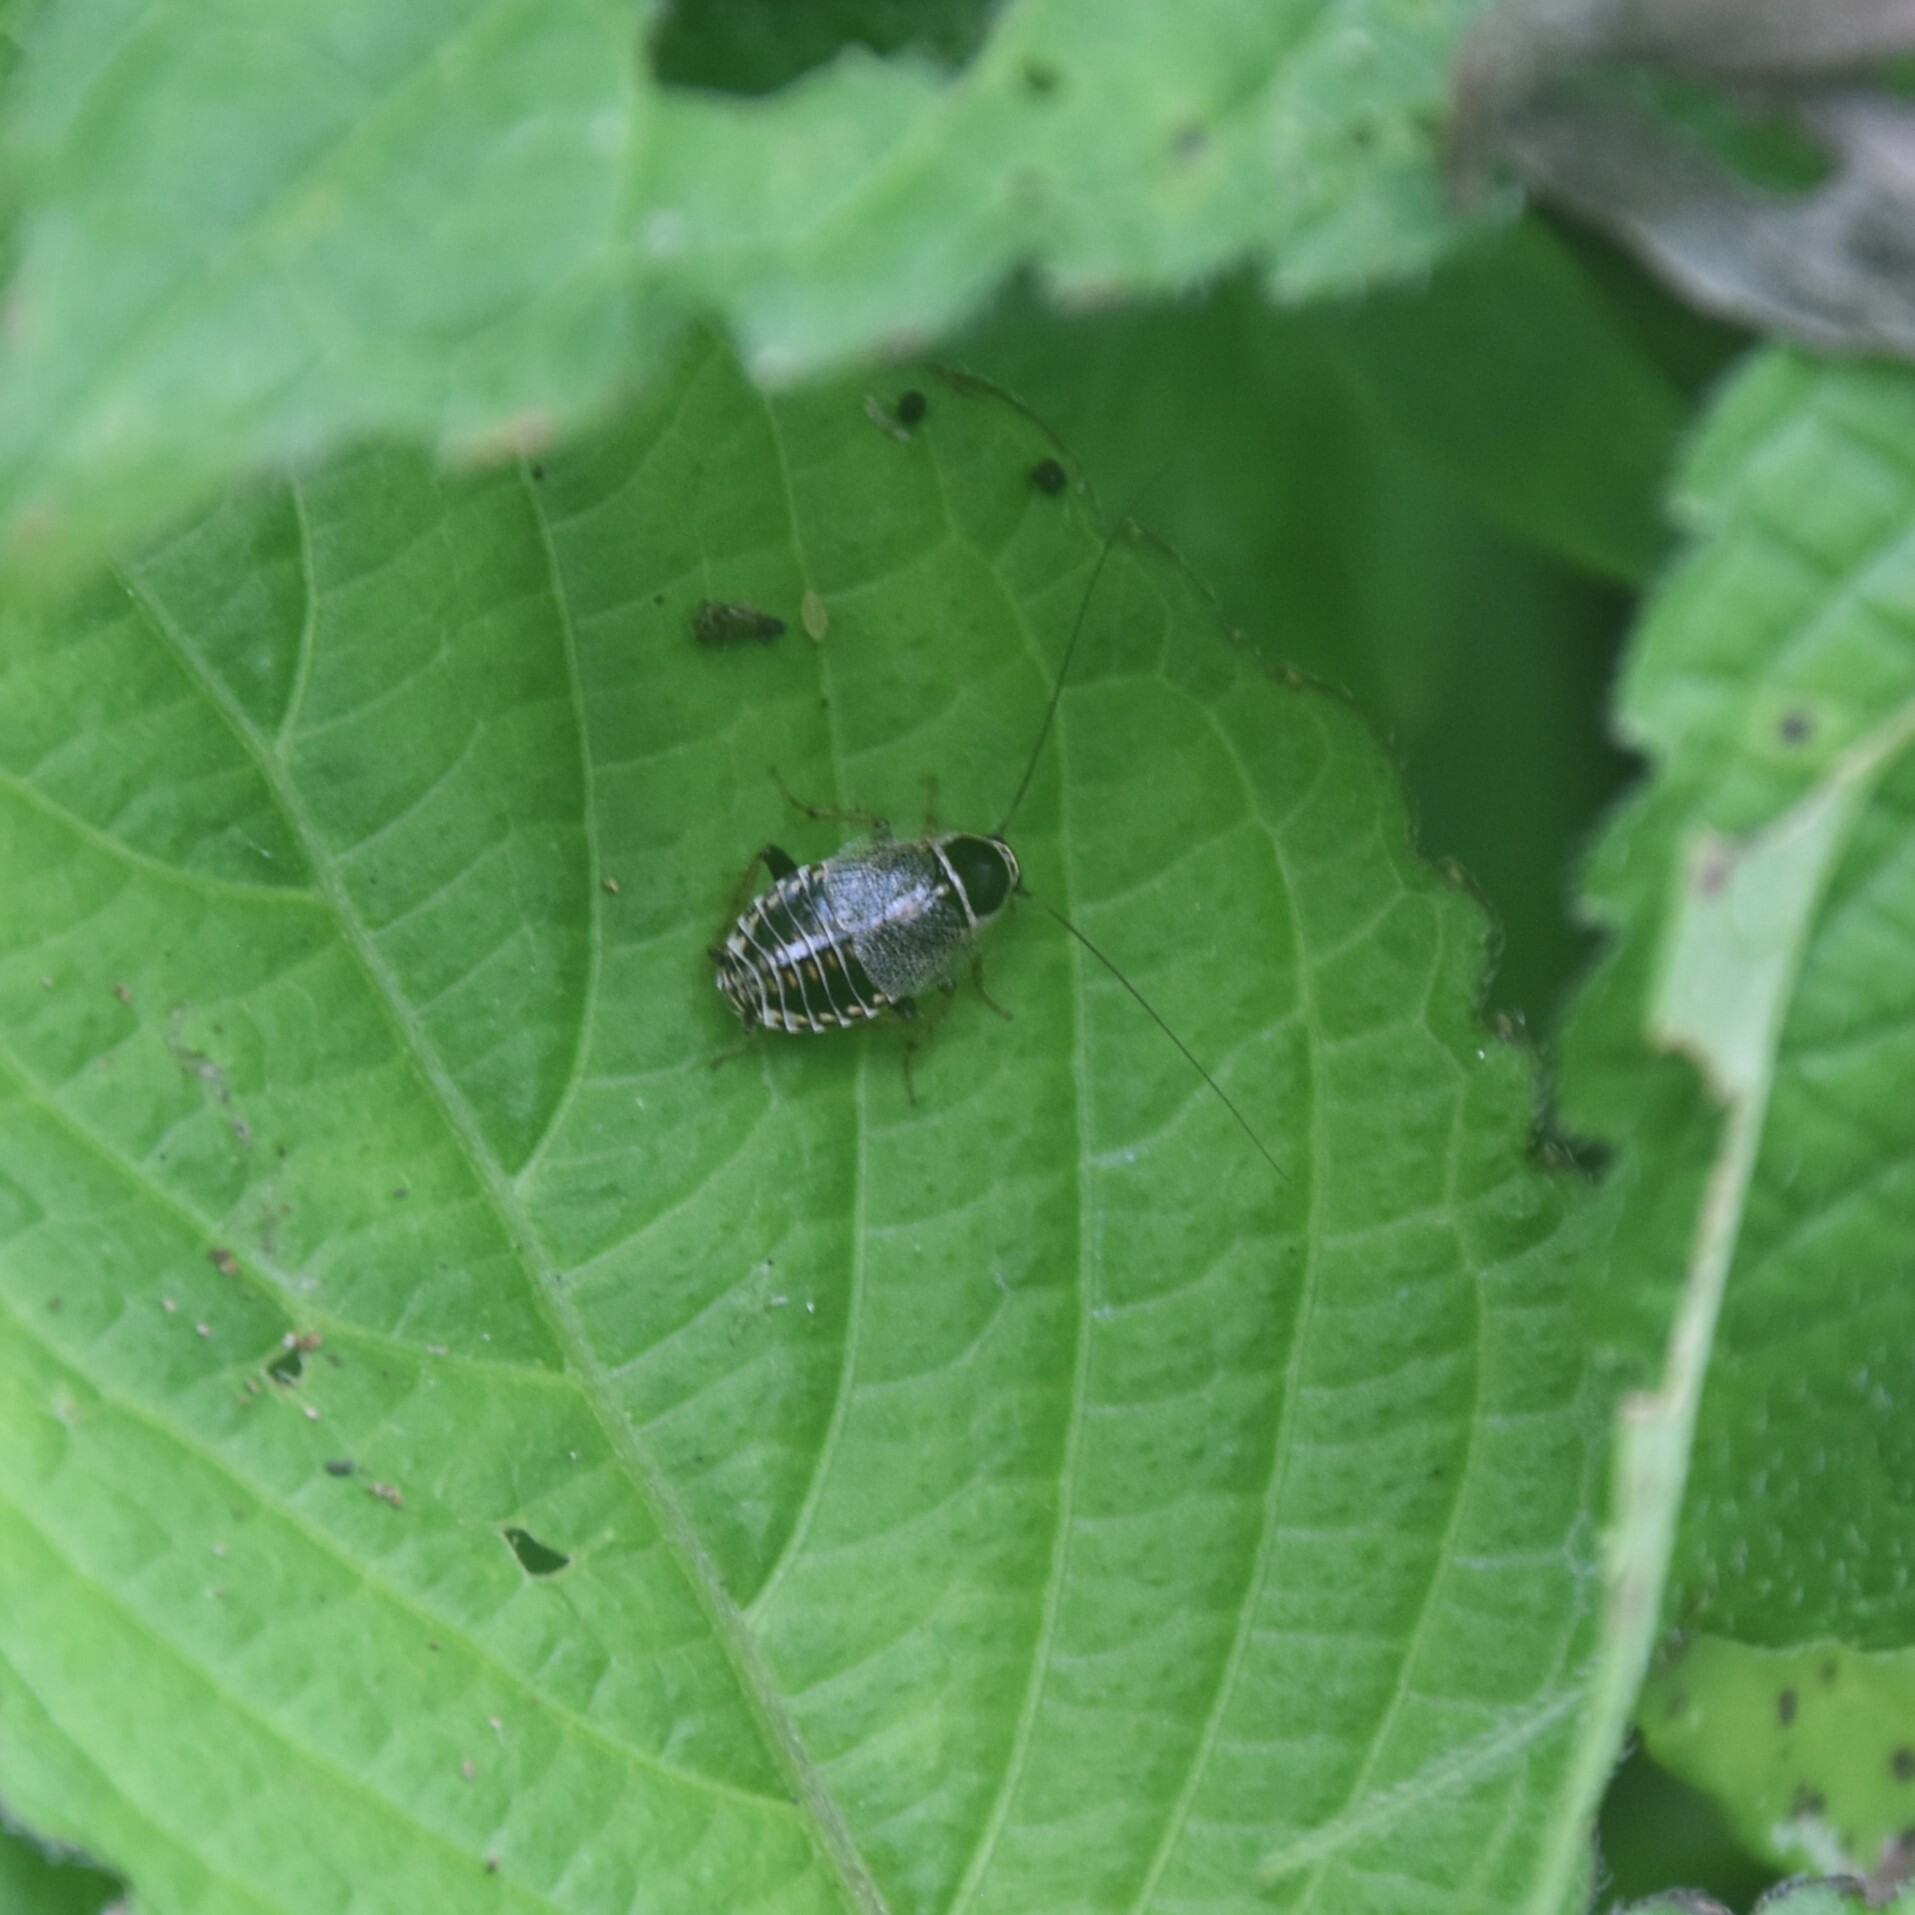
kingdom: Animalia
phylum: Arthropoda
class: Insecta
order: Blattodea
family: Ectobiidae
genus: Ectobius
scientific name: Ectobius indicus
